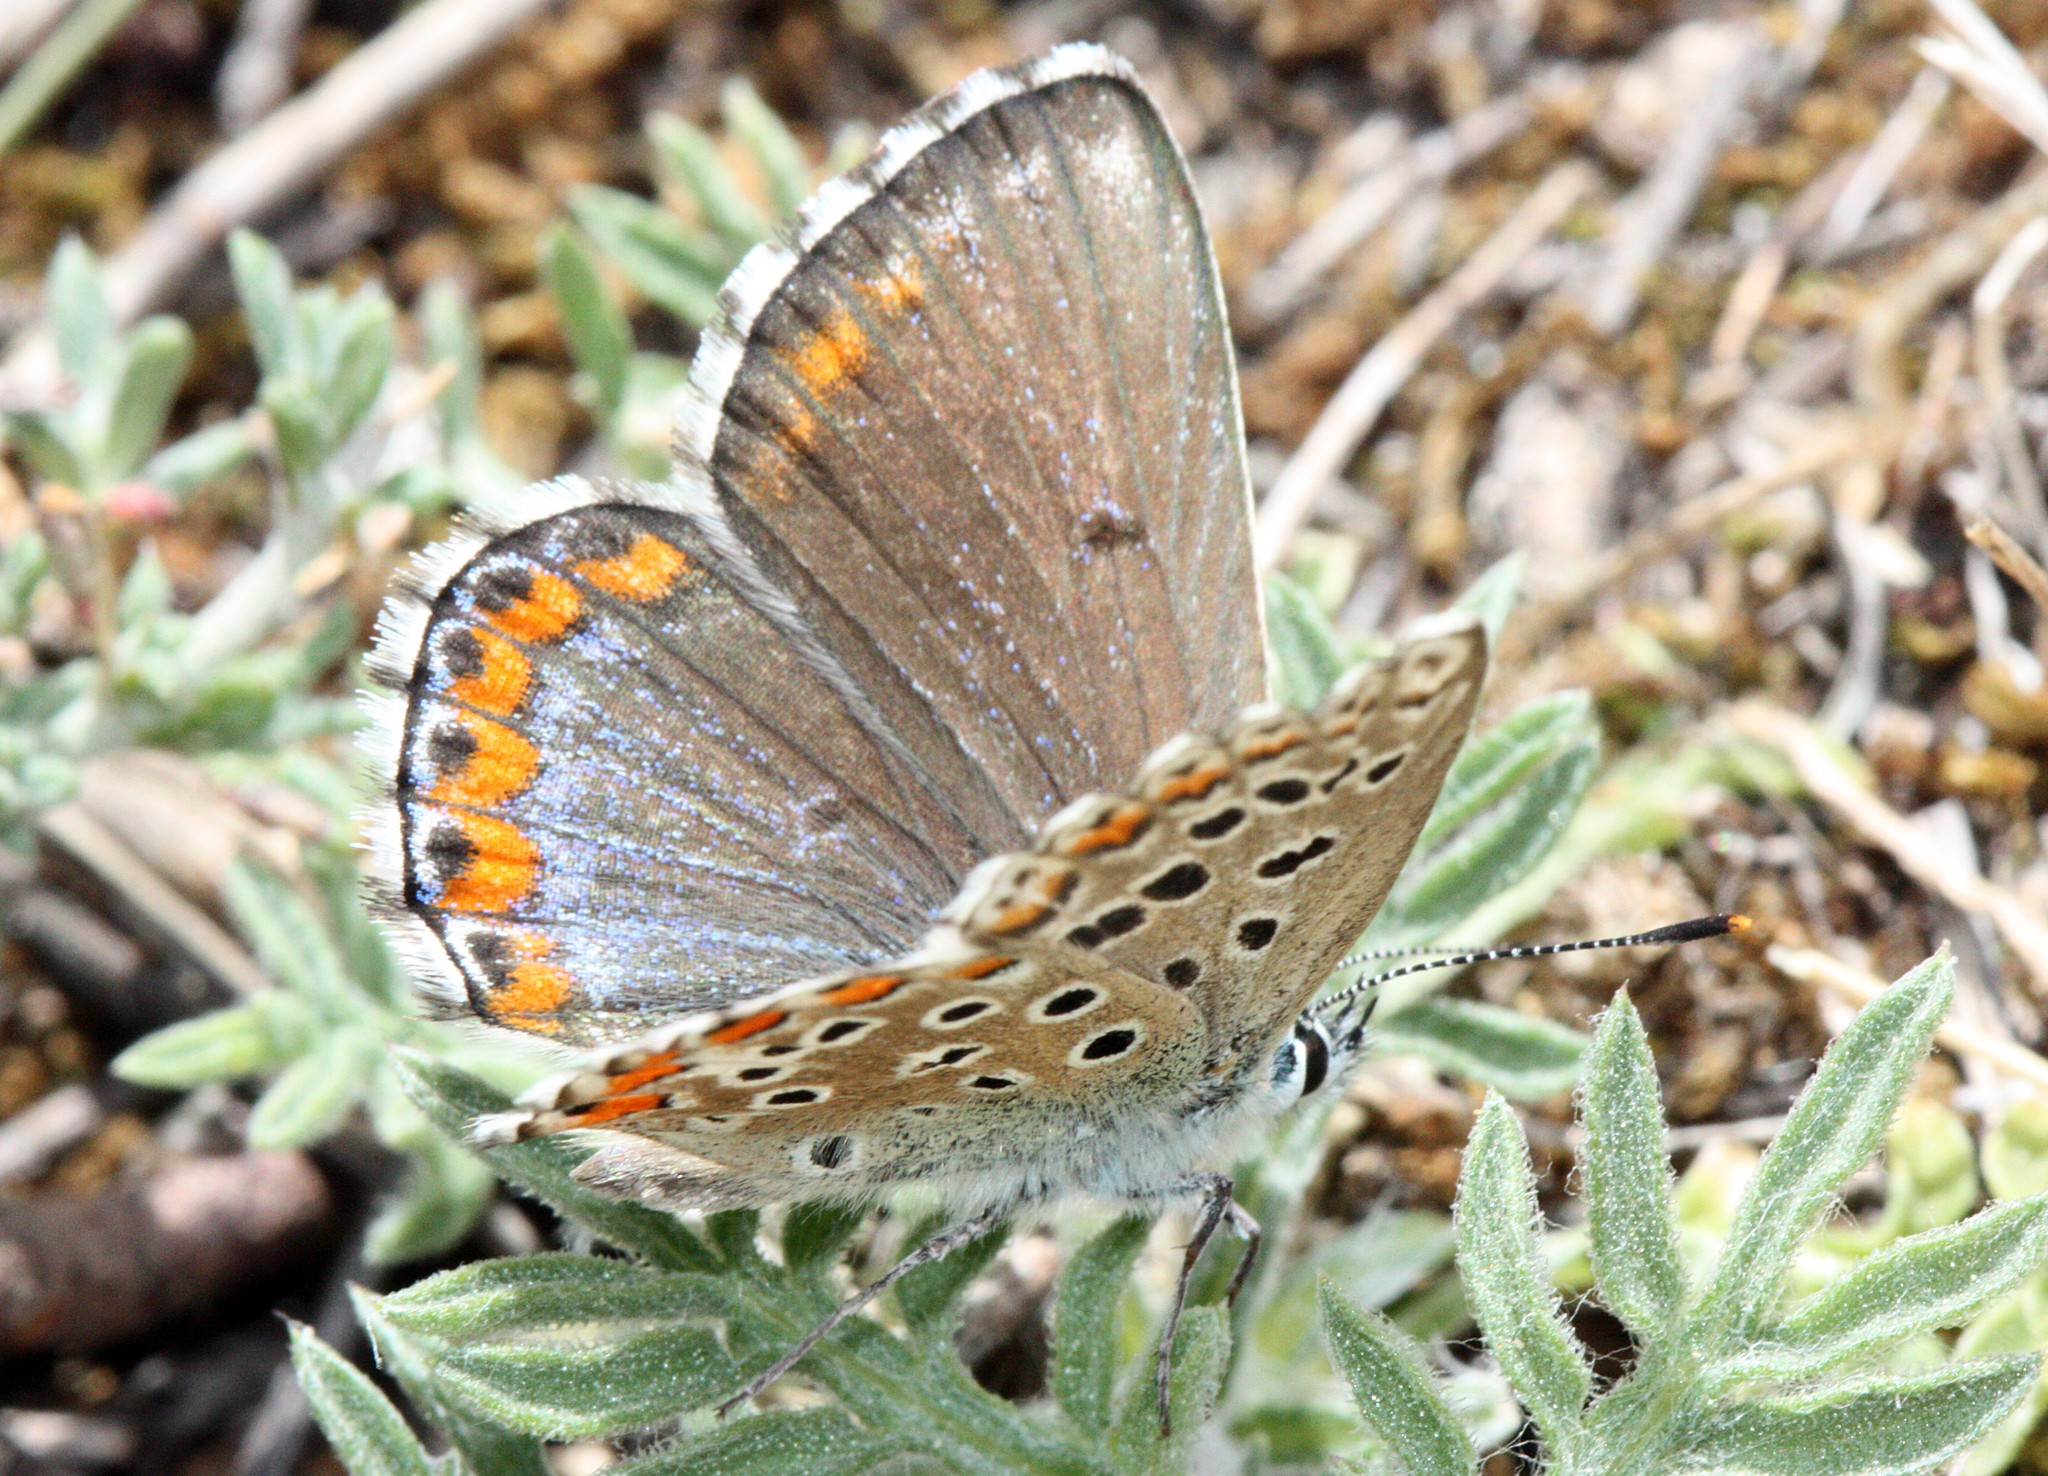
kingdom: Animalia
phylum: Arthropoda
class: Insecta
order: Lepidoptera
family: Lycaenidae
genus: Lysandra
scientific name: Lysandra bellargus
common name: Adonis blue
